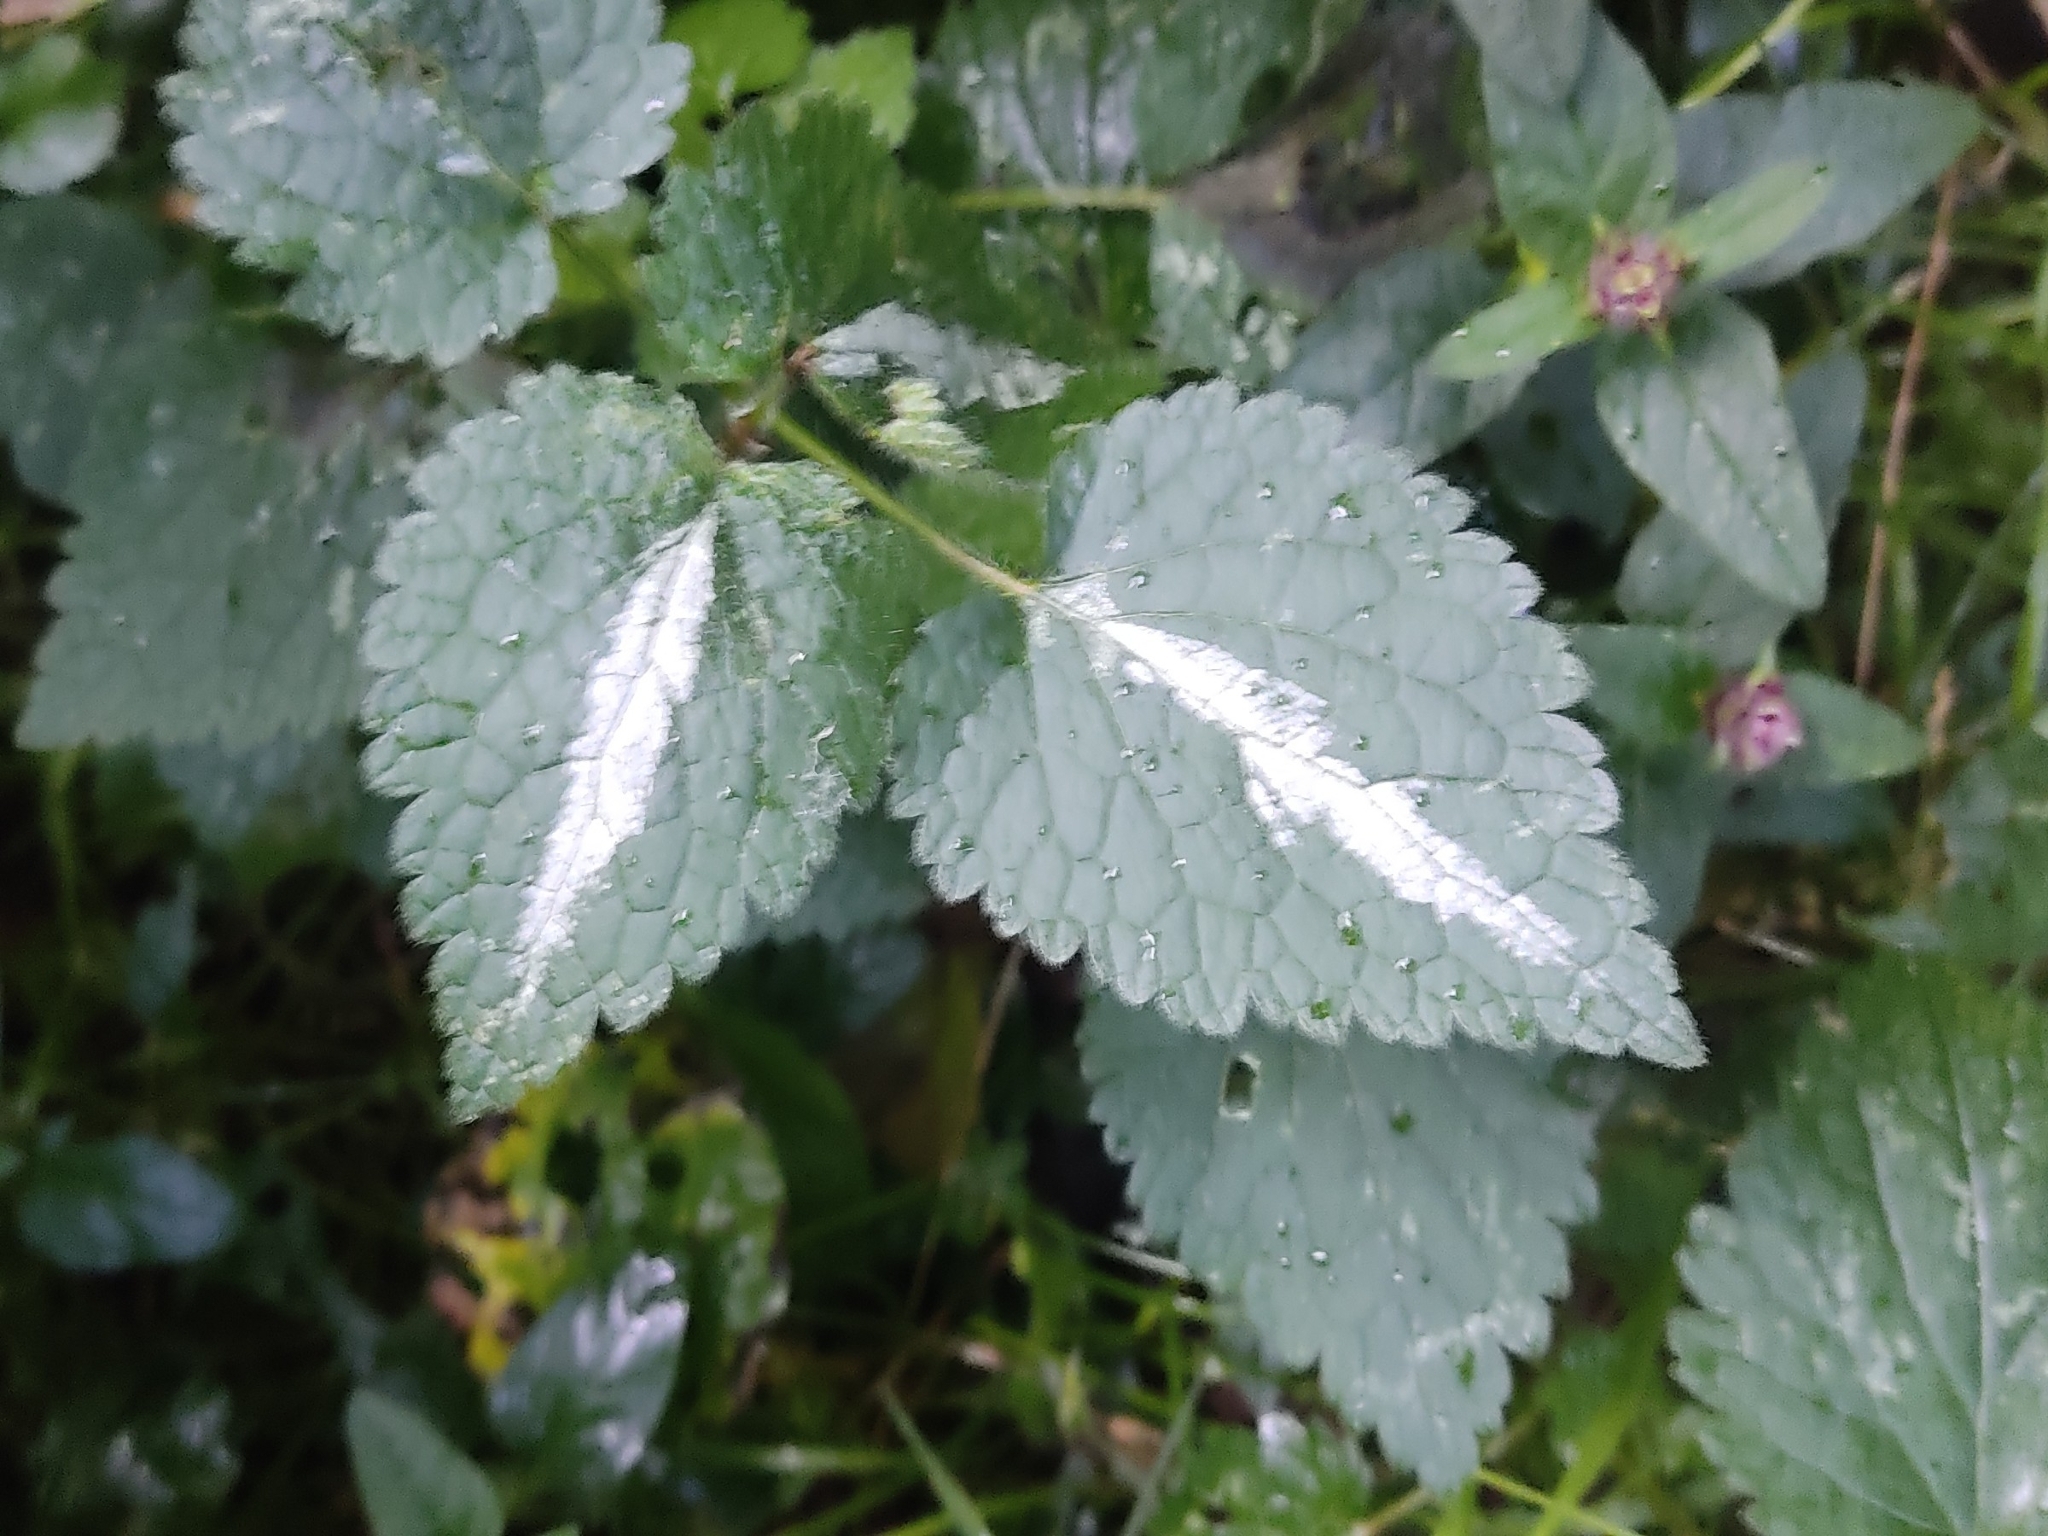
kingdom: Plantae
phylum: Tracheophyta
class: Magnoliopsida
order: Lamiales
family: Lamiaceae
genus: Lamium
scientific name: Lamium maculatum
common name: Spotted dead-nettle
